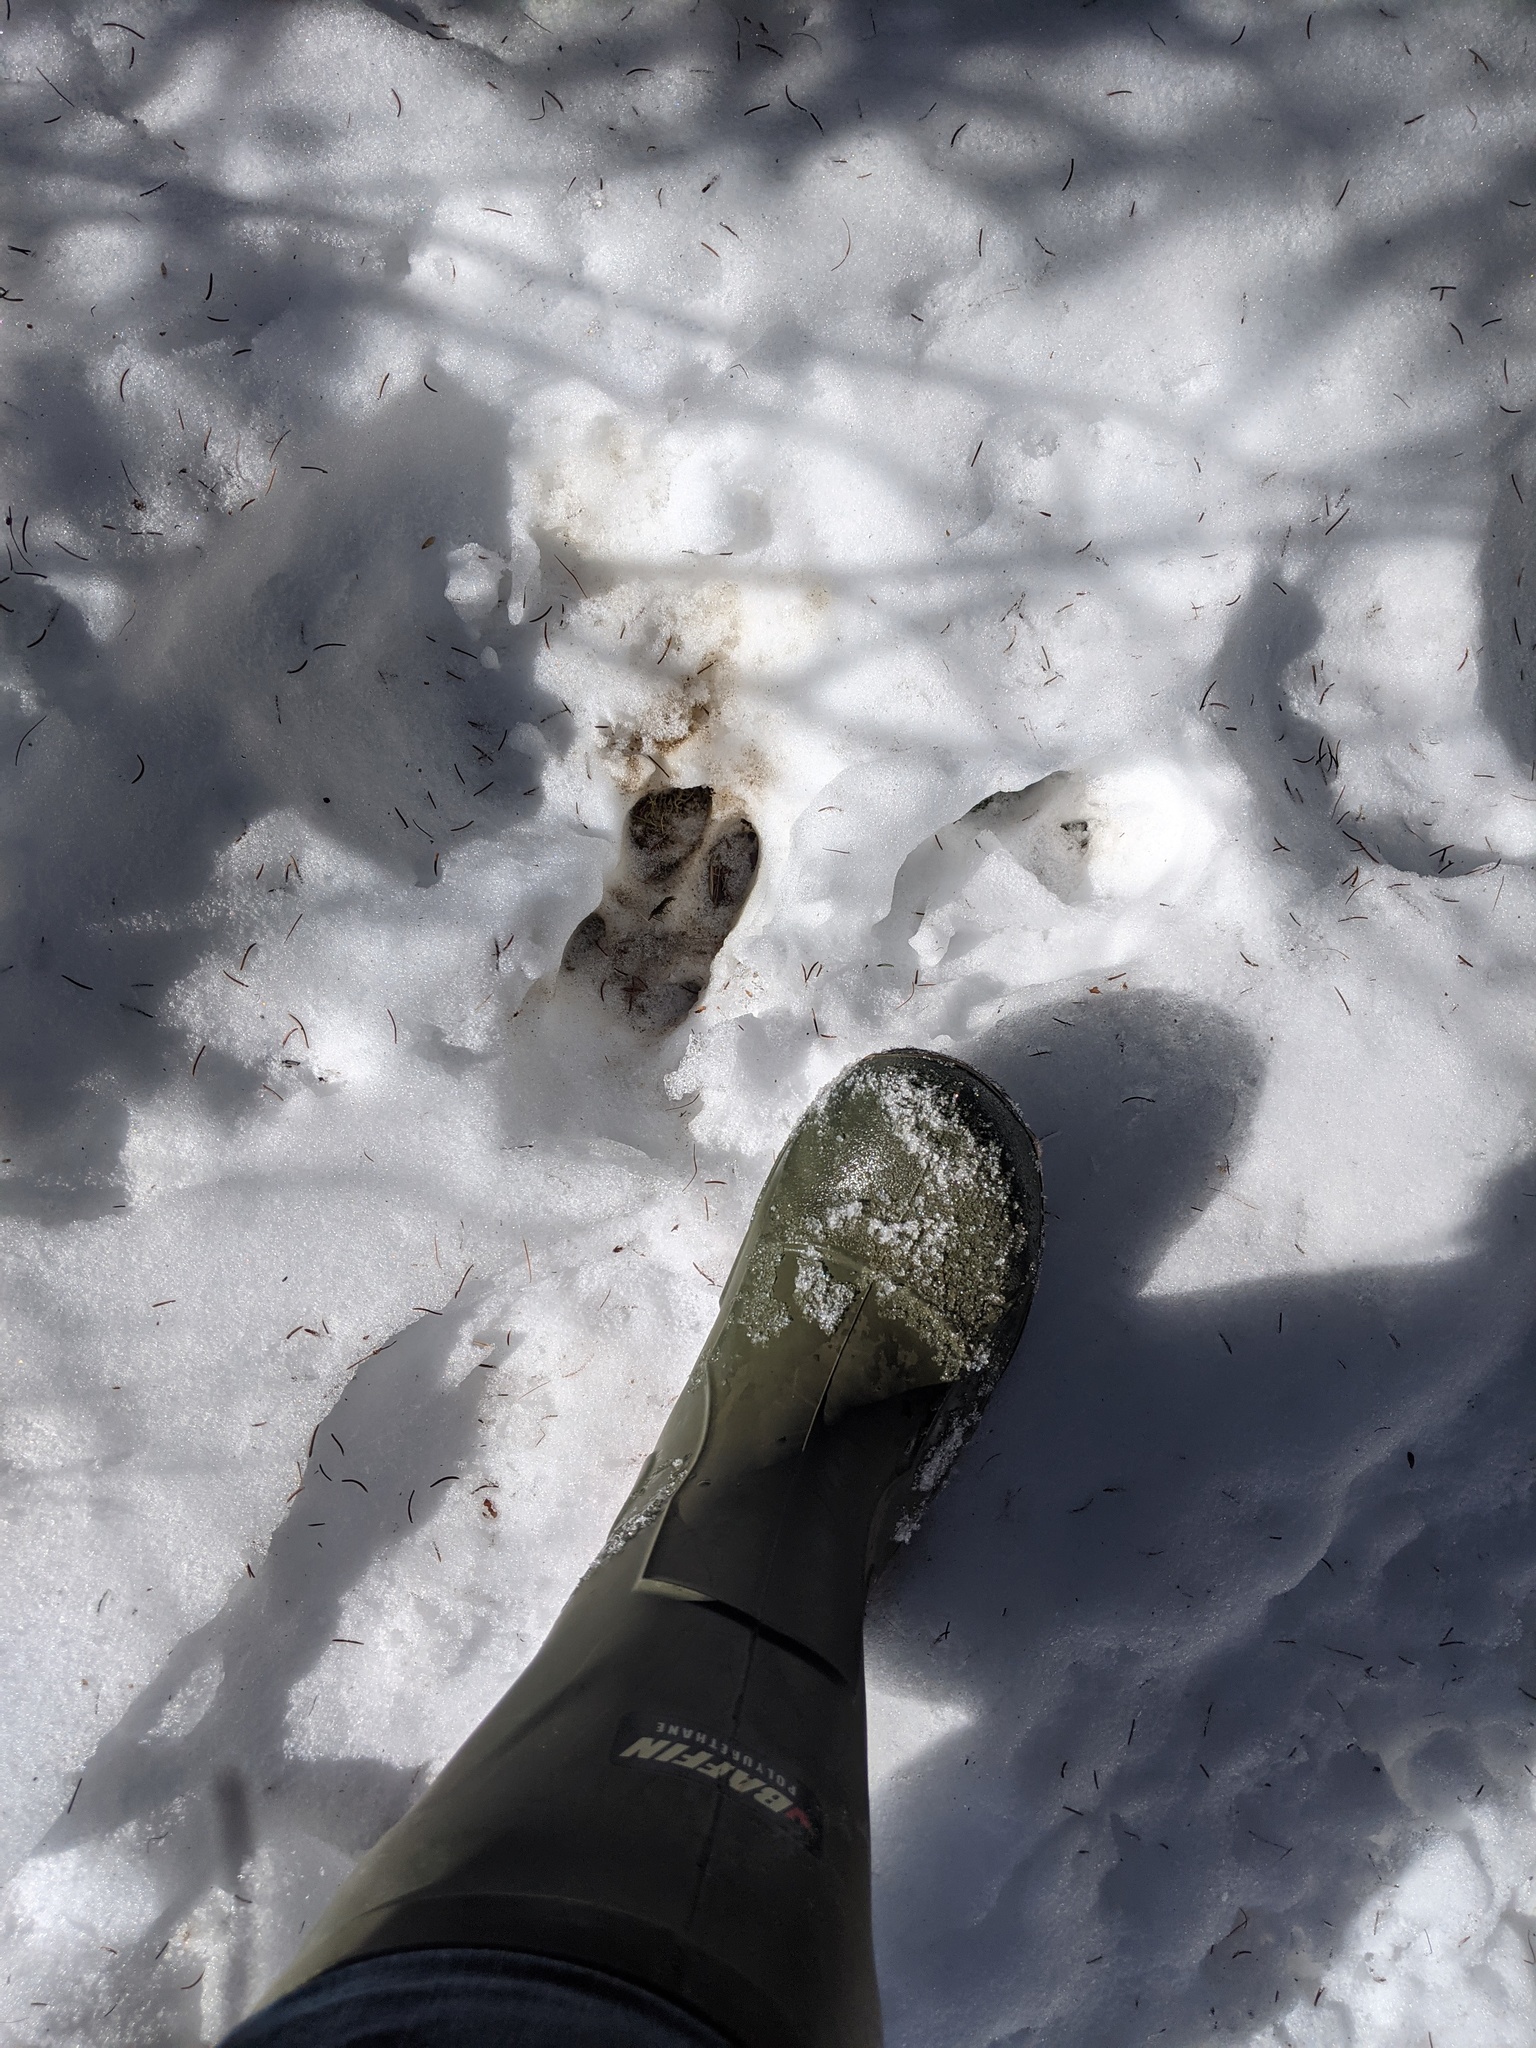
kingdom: Animalia
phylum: Chordata
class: Mammalia
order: Artiodactyla
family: Cervidae
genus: Odocoileus
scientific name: Odocoileus virginianus
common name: White-tailed deer
